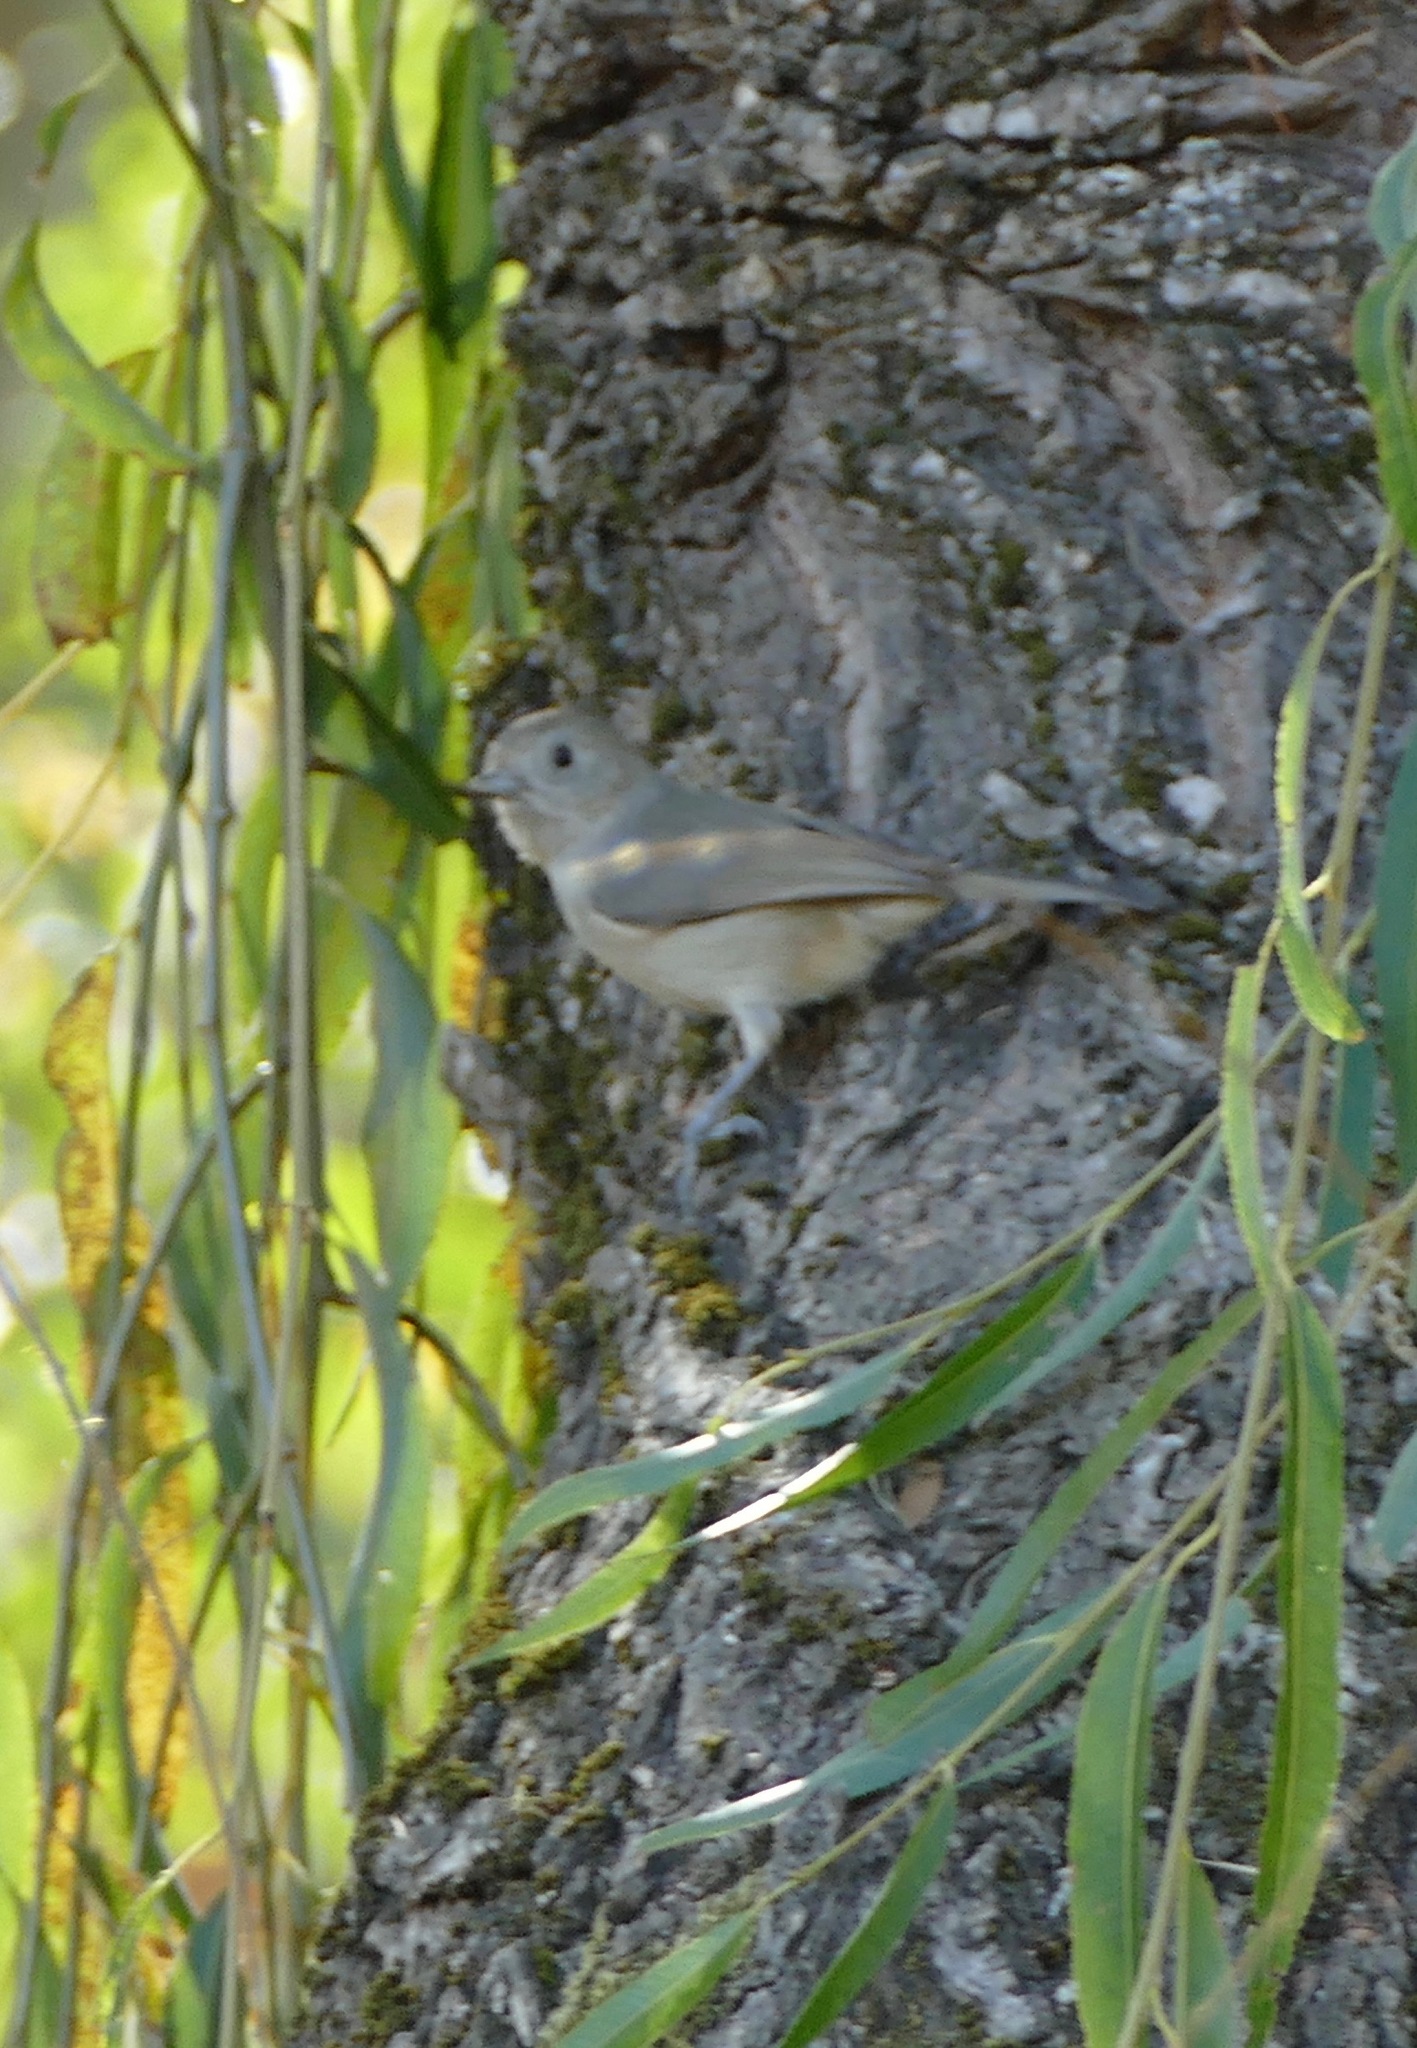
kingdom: Animalia
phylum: Chordata
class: Aves
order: Passeriformes
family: Paridae
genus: Baeolophus
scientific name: Baeolophus inornatus
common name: Oak titmouse
